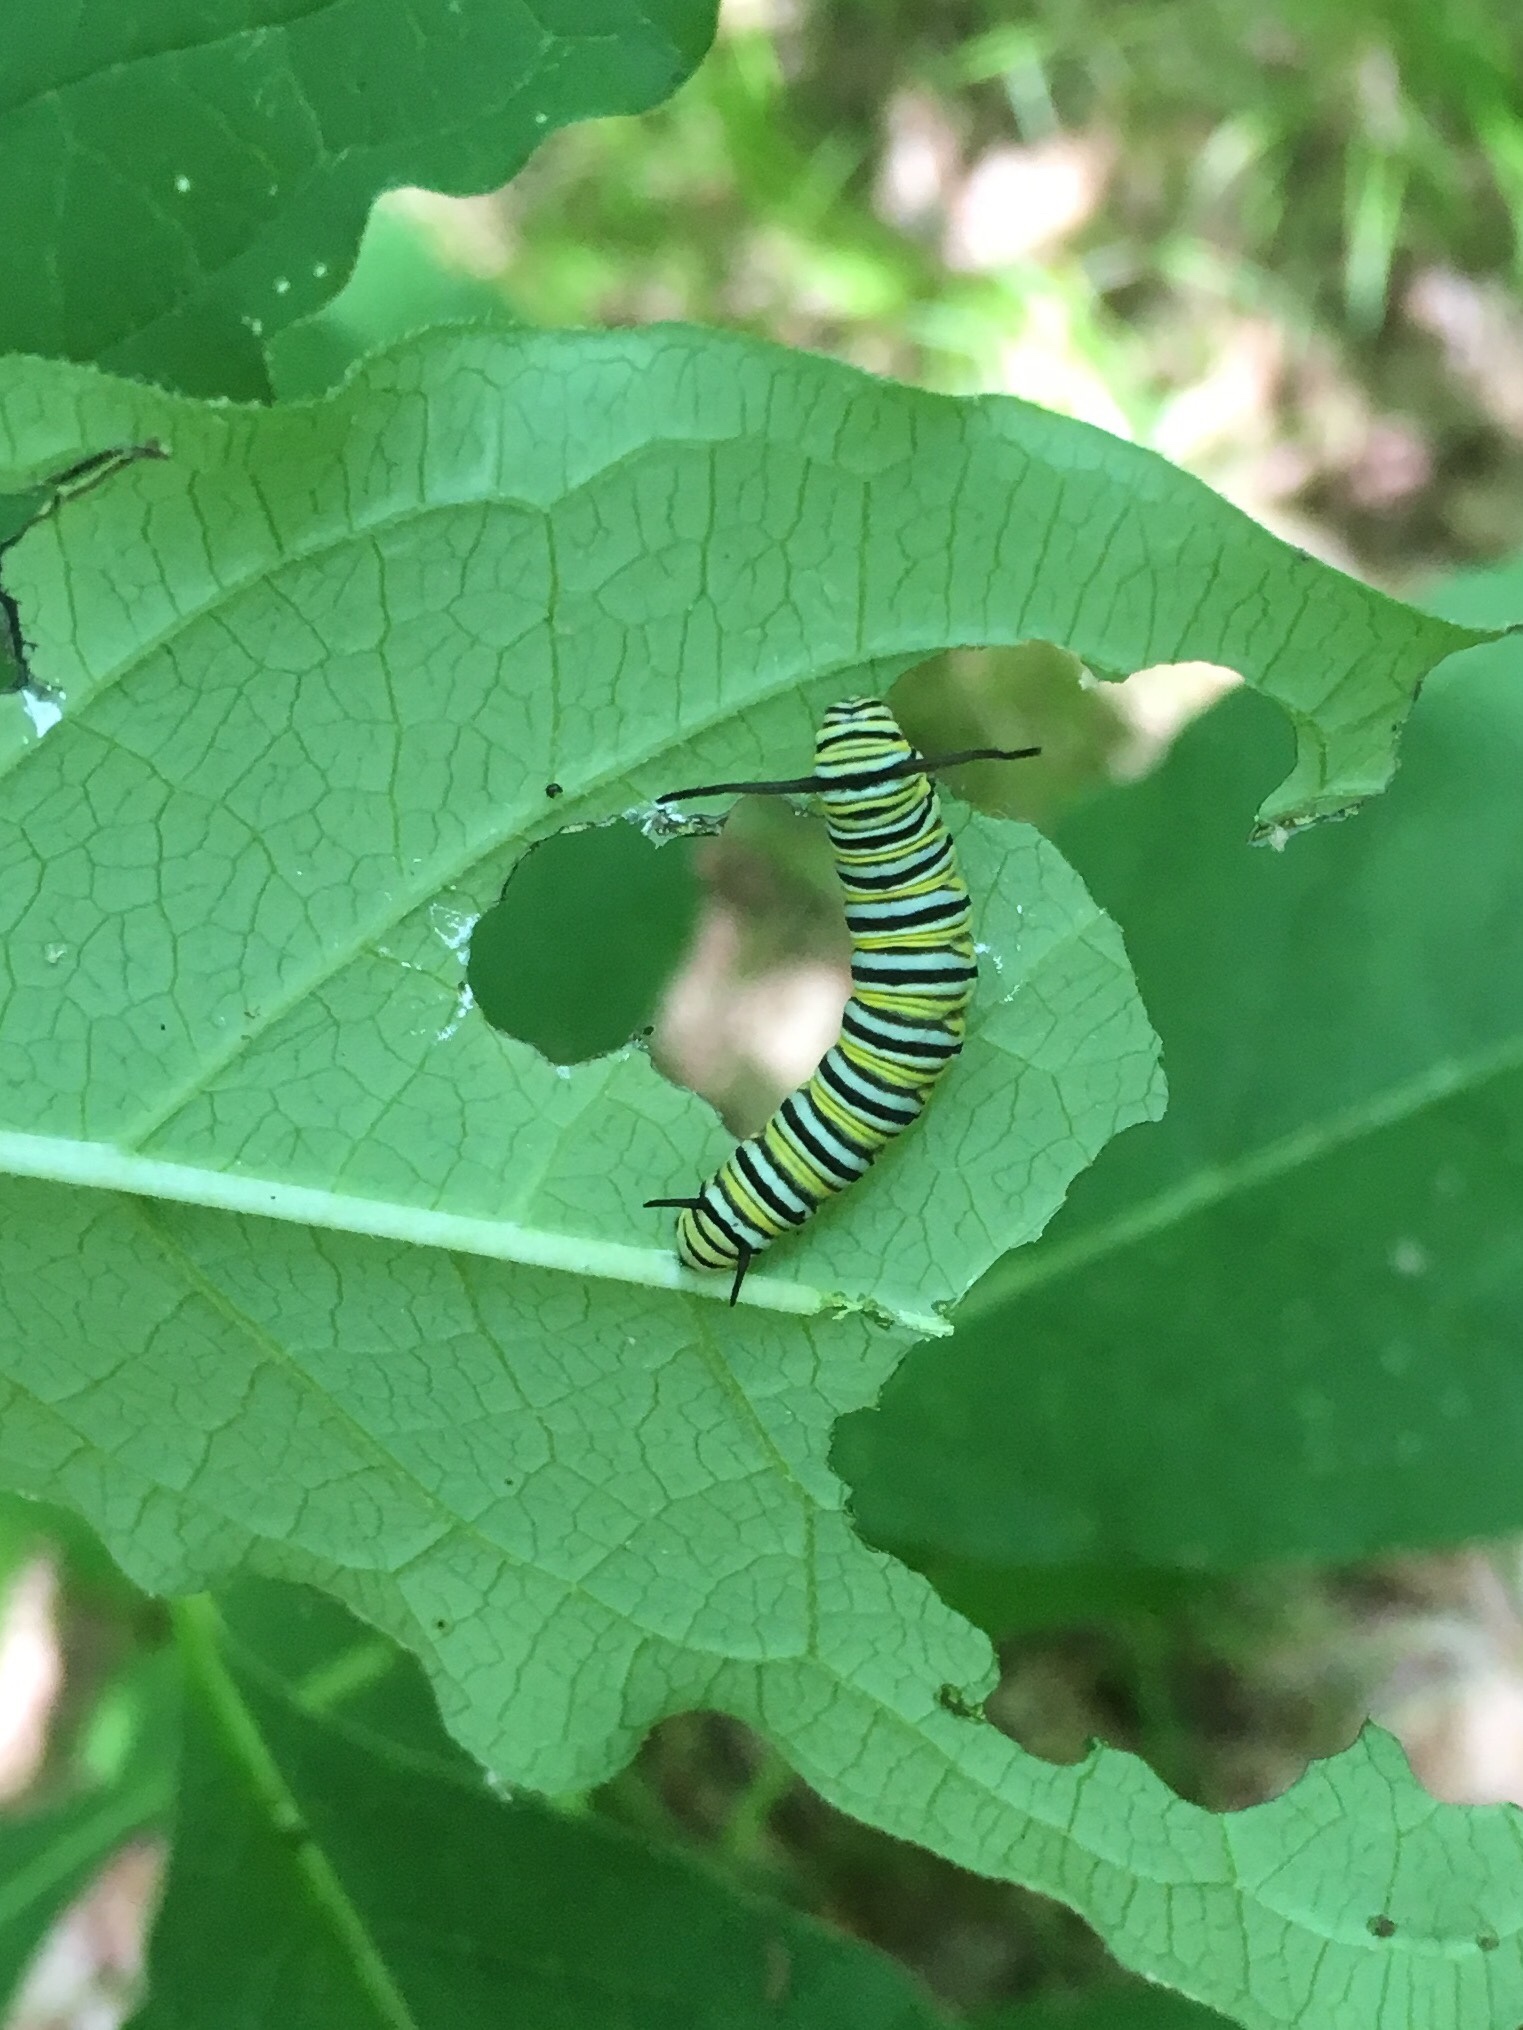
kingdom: Animalia
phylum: Arthropoda
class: Insecta
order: Lepidoptera
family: Nymphalidae
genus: Danaus
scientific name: Danaus plexippus
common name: Monarch
